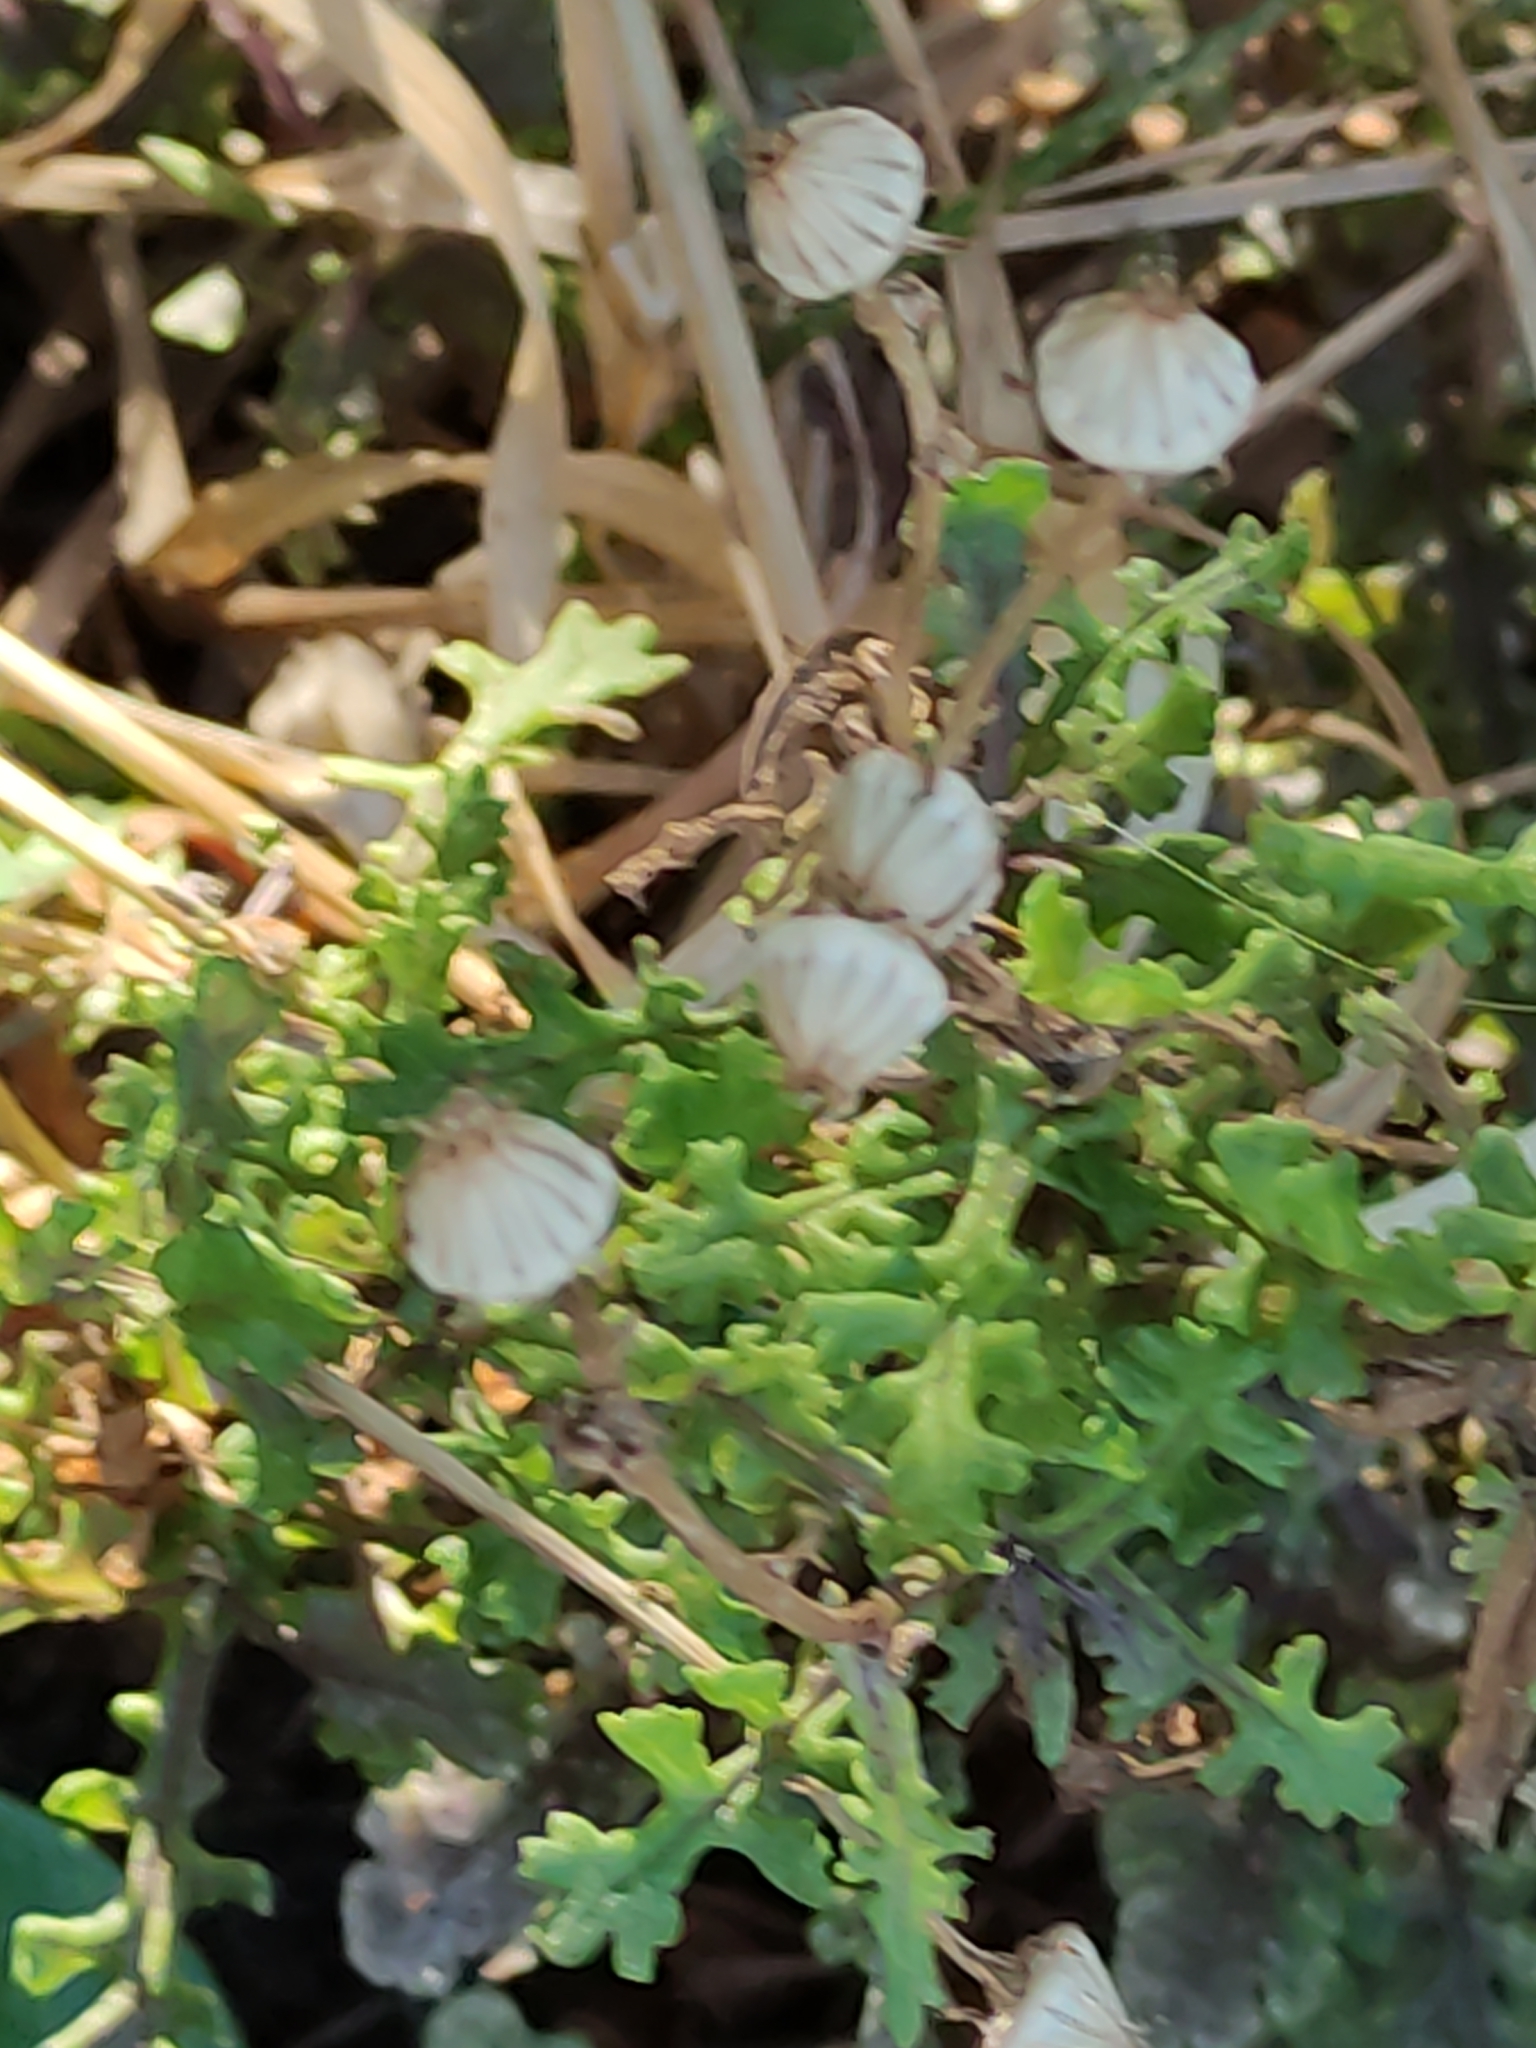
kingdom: Plantae
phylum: Tracheophyta
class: Magnoliopsida
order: Asterales
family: Asteraceae
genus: Senecio
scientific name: Senecio elegans
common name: Purple groundsel
